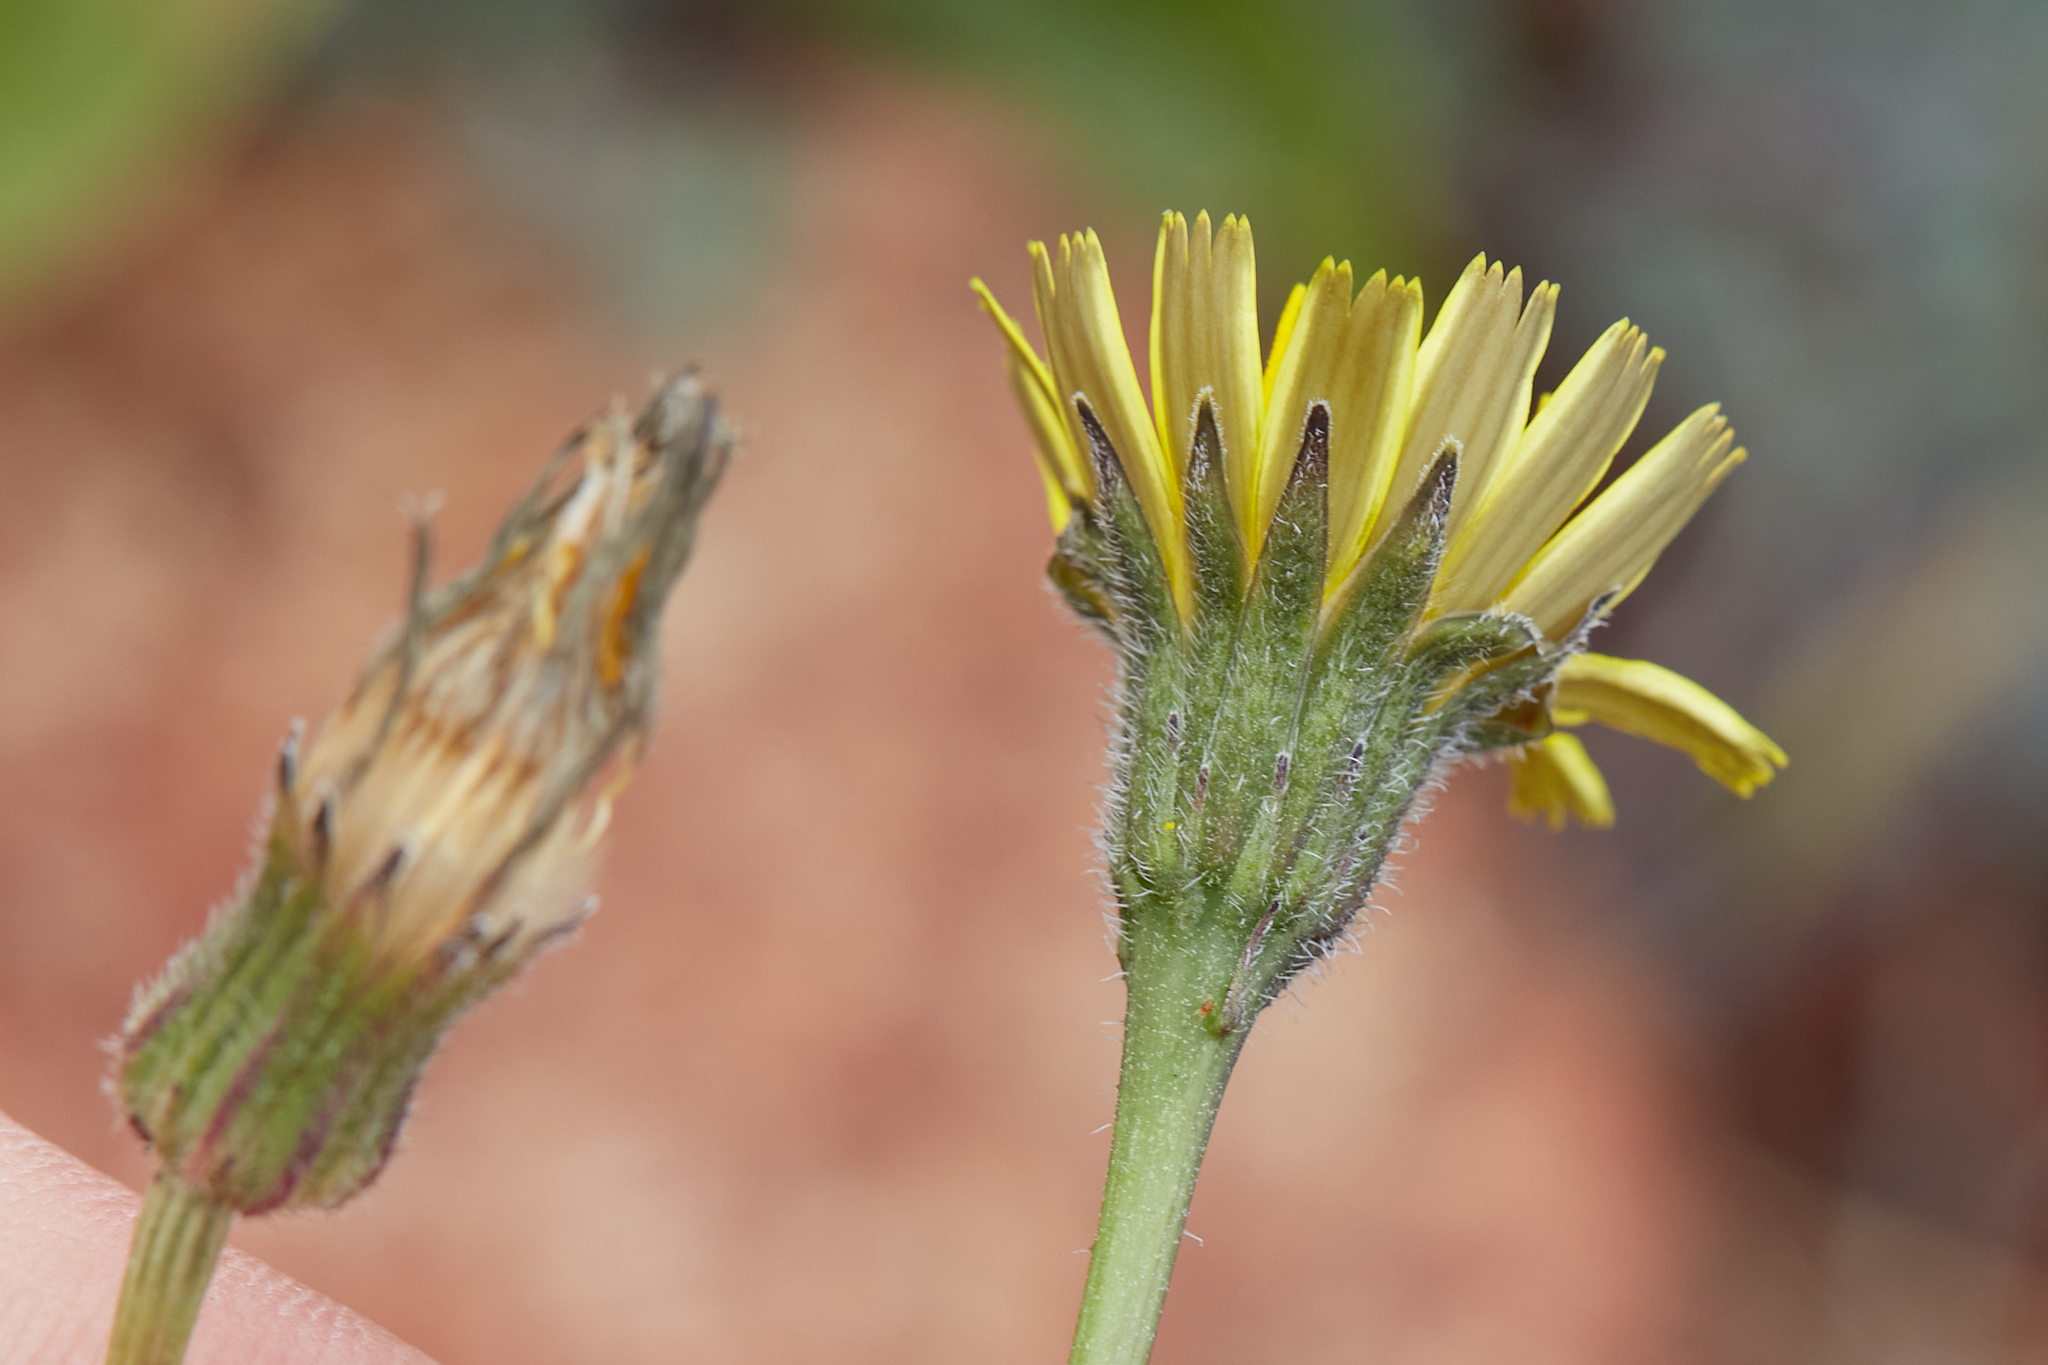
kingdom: Plantae
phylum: Tracheophyta
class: Magnoliopsida
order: Asterales
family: Asteraceae
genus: Thrincia
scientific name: Thrincia saxatilis
